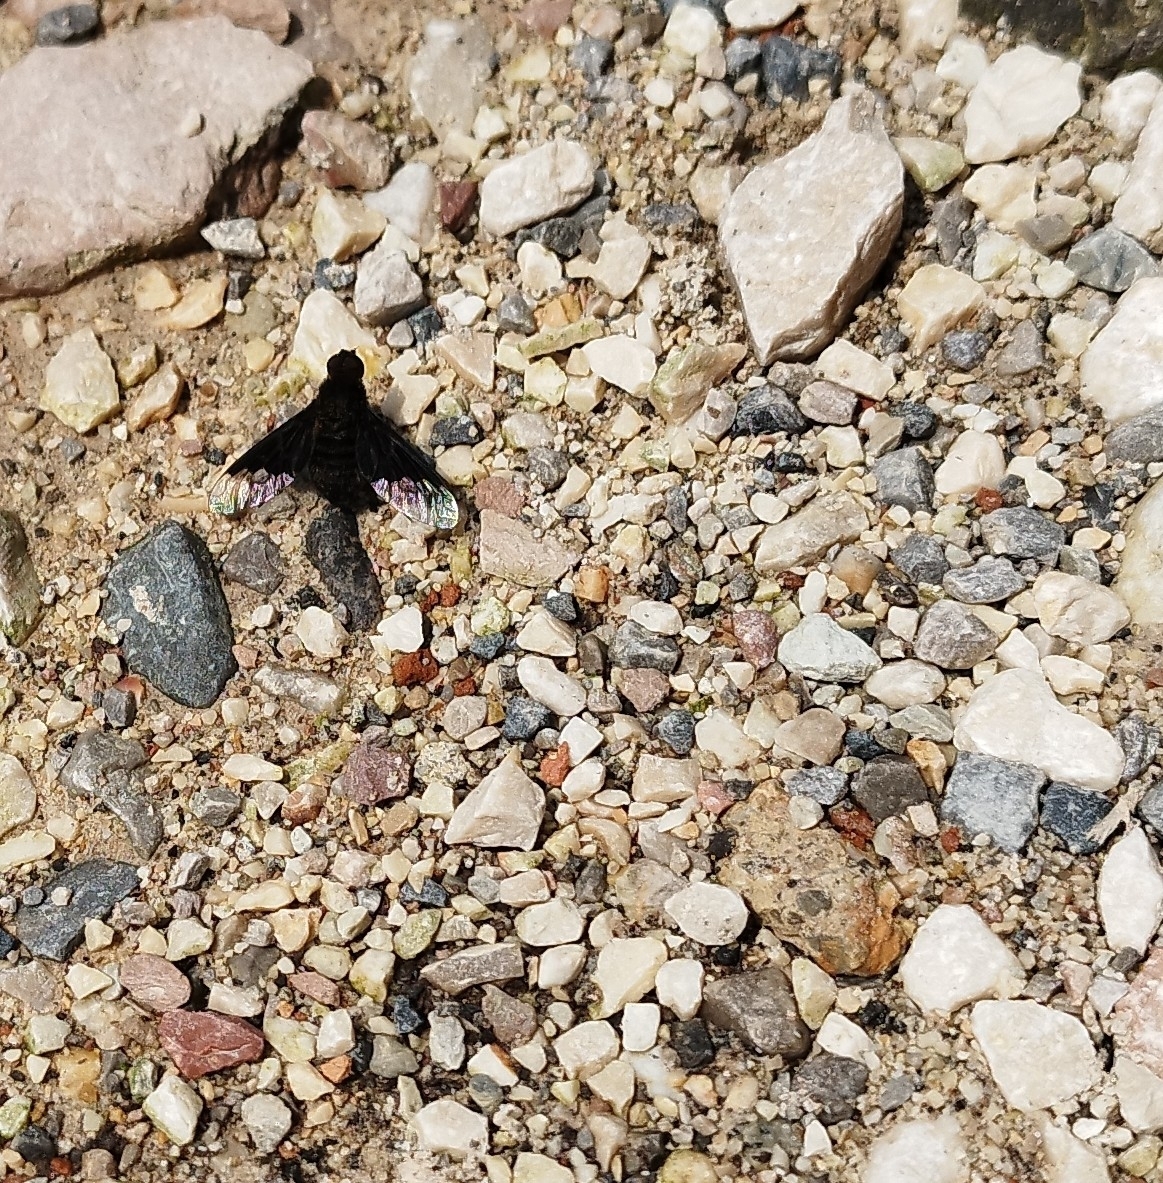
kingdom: Animalia
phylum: Arthropoda
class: Insecta
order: Diptera
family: Bombyliidae
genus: Hemipenthes
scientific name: Hemipenthes morio
